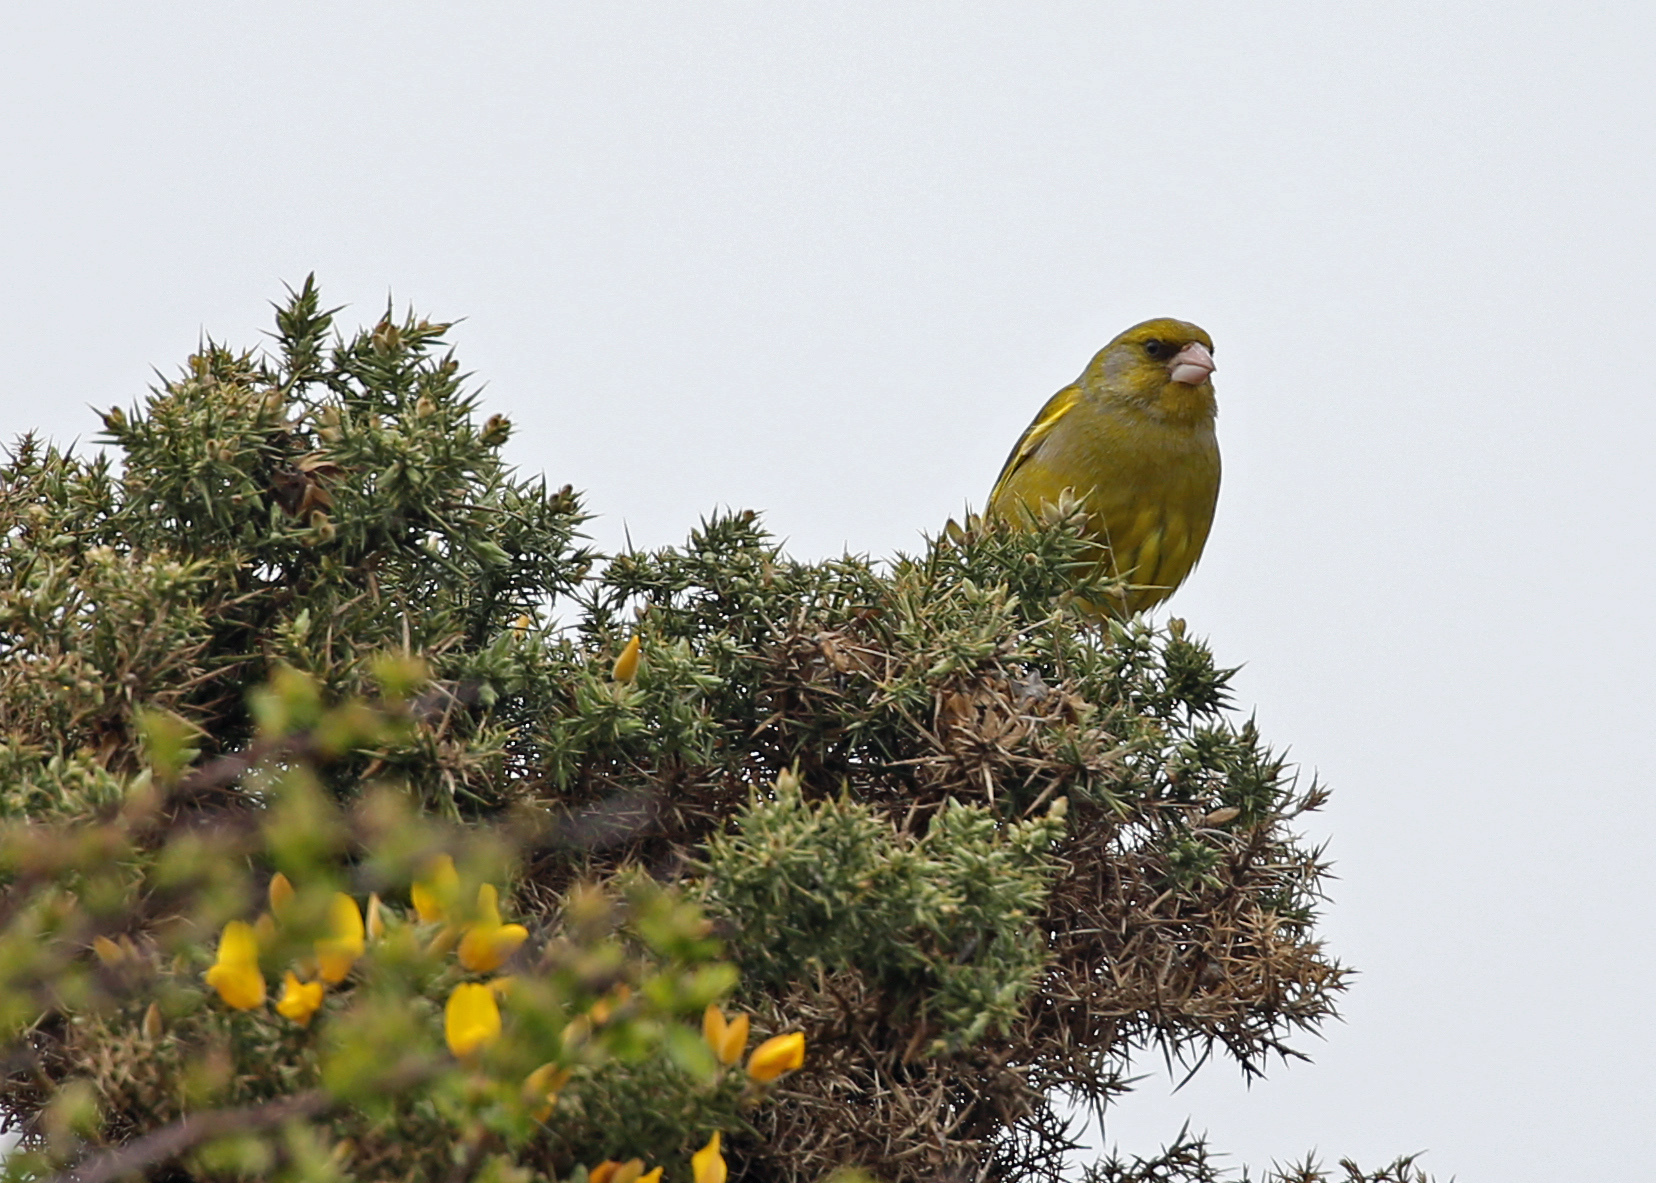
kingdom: Plantae
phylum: Tracheophyta
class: Liliopsida
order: Poales
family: Poaceae
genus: Chloris
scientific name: Chloris chloris
